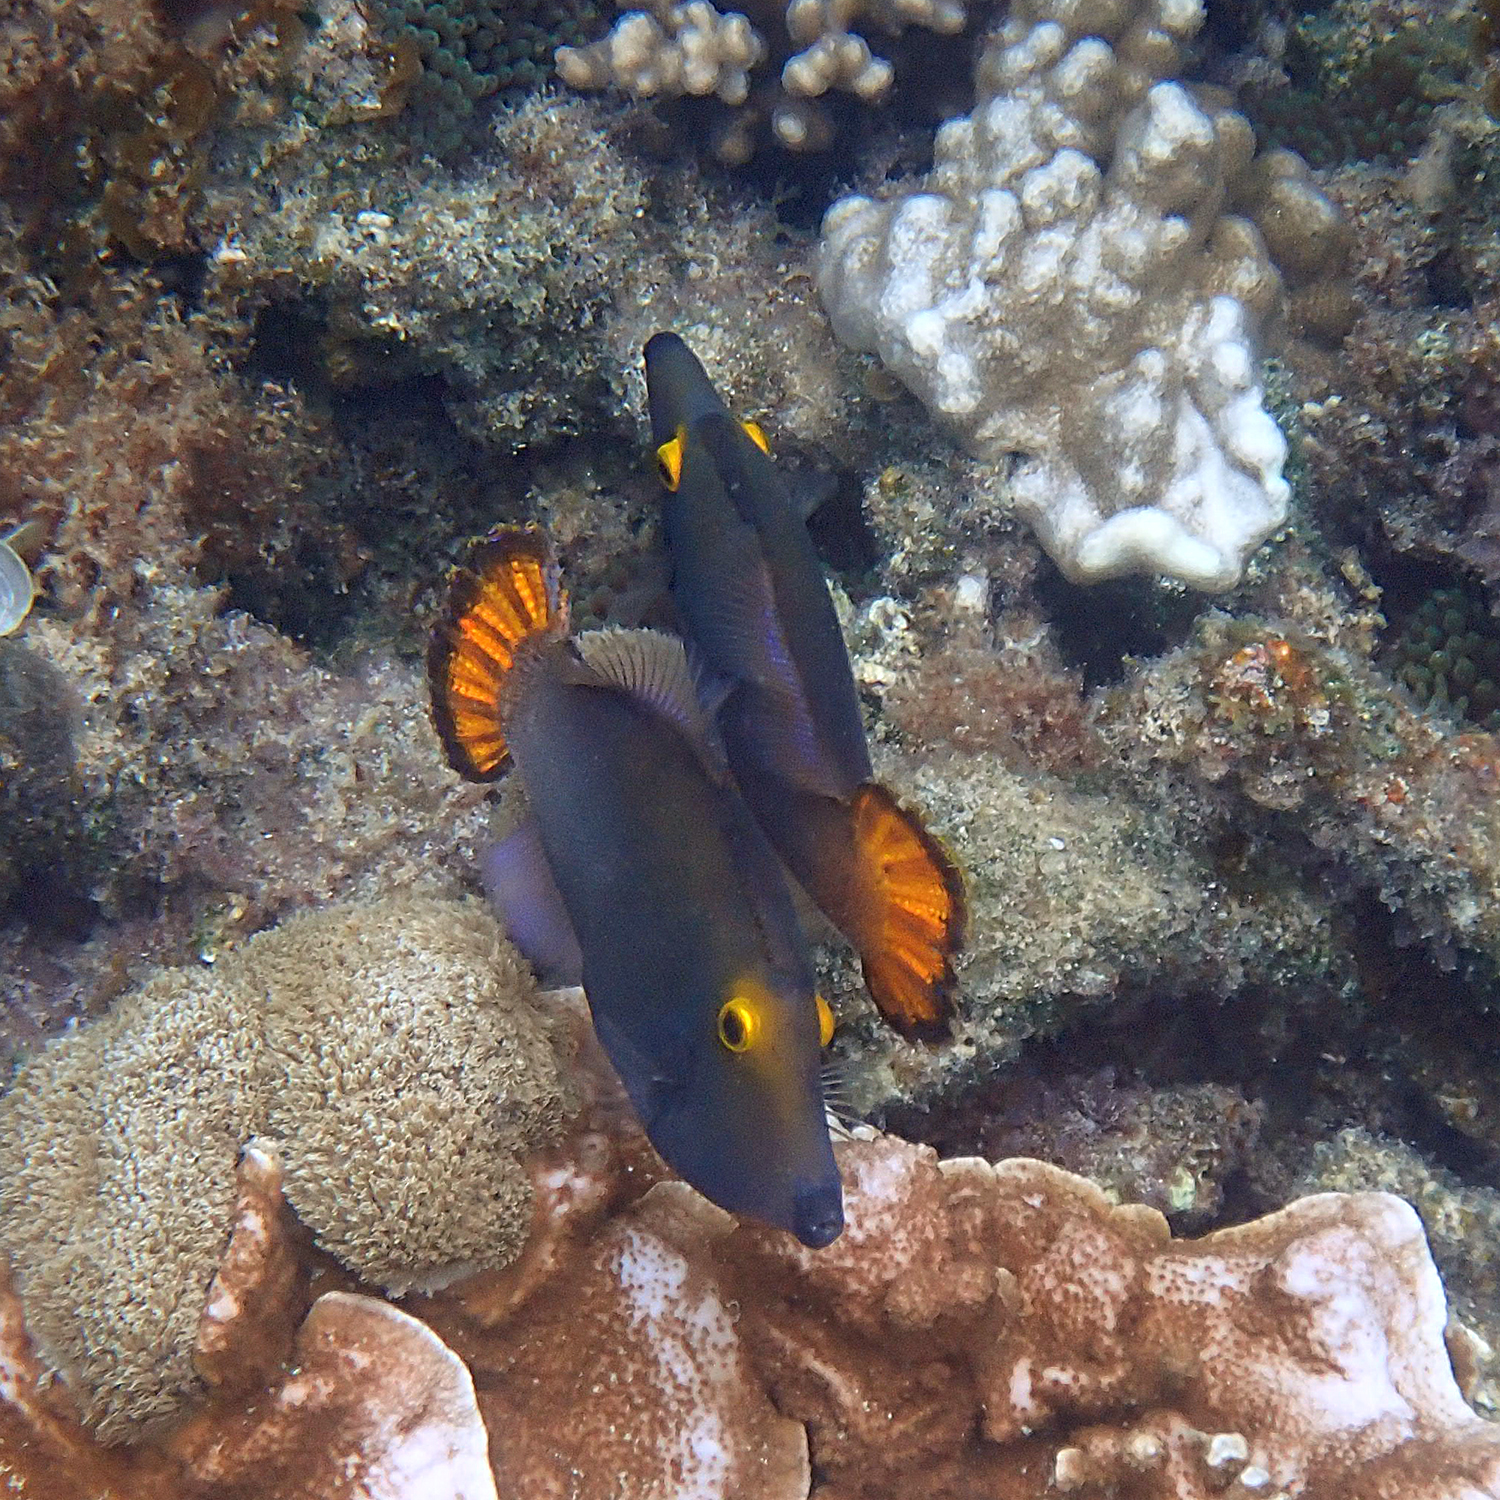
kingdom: Animalia
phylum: Chordata
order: Tetraodontiformes
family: Monacanthidae
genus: Pervagor
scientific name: Pervagor alternans
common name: Yelloweye filefish
